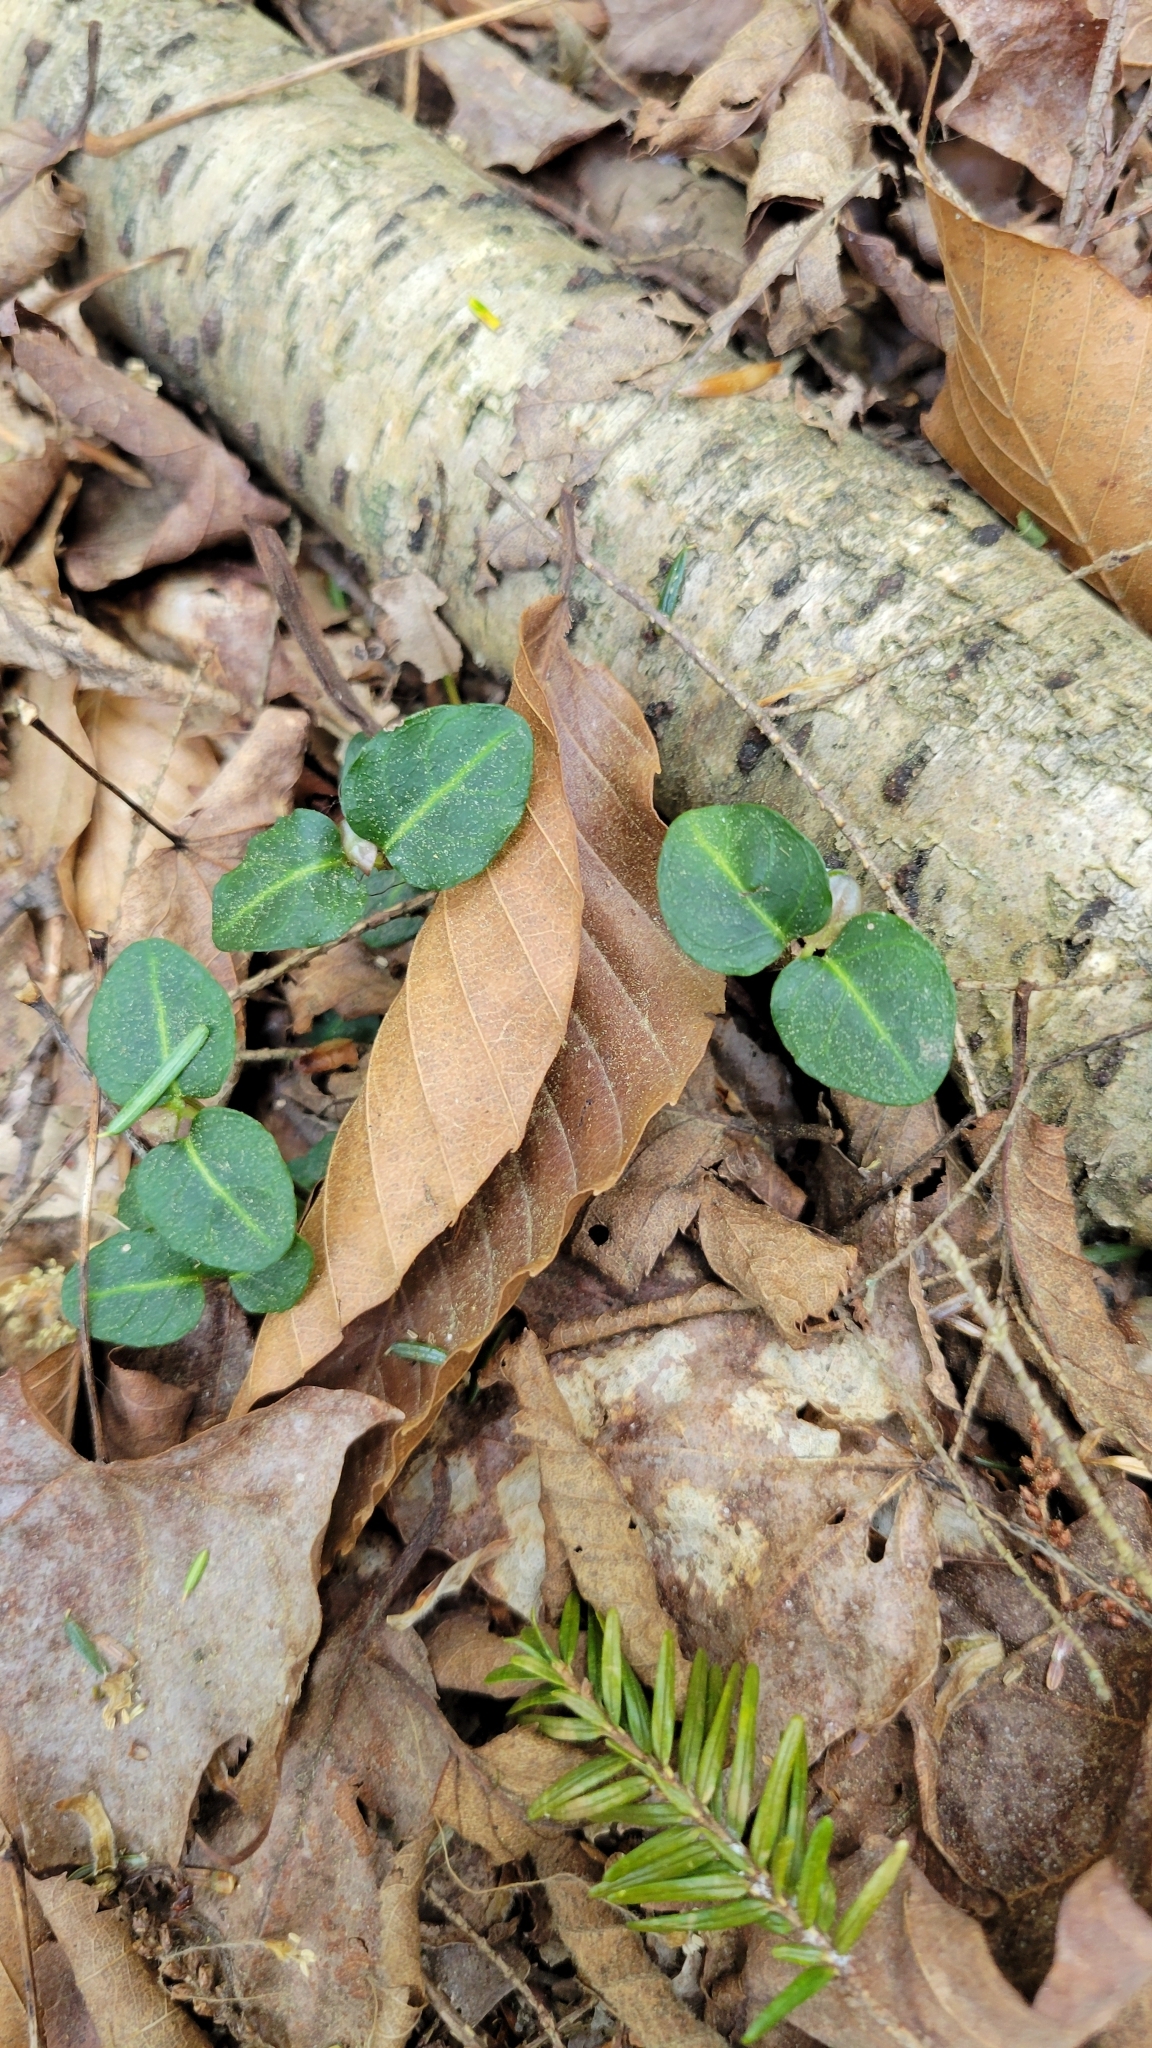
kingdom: Plantae
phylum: Tracheophyta
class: Magnoliopsida
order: Gentianales
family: Rubiaceae
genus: Mitchella
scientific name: Mitchella repens
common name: Partridge-berry
